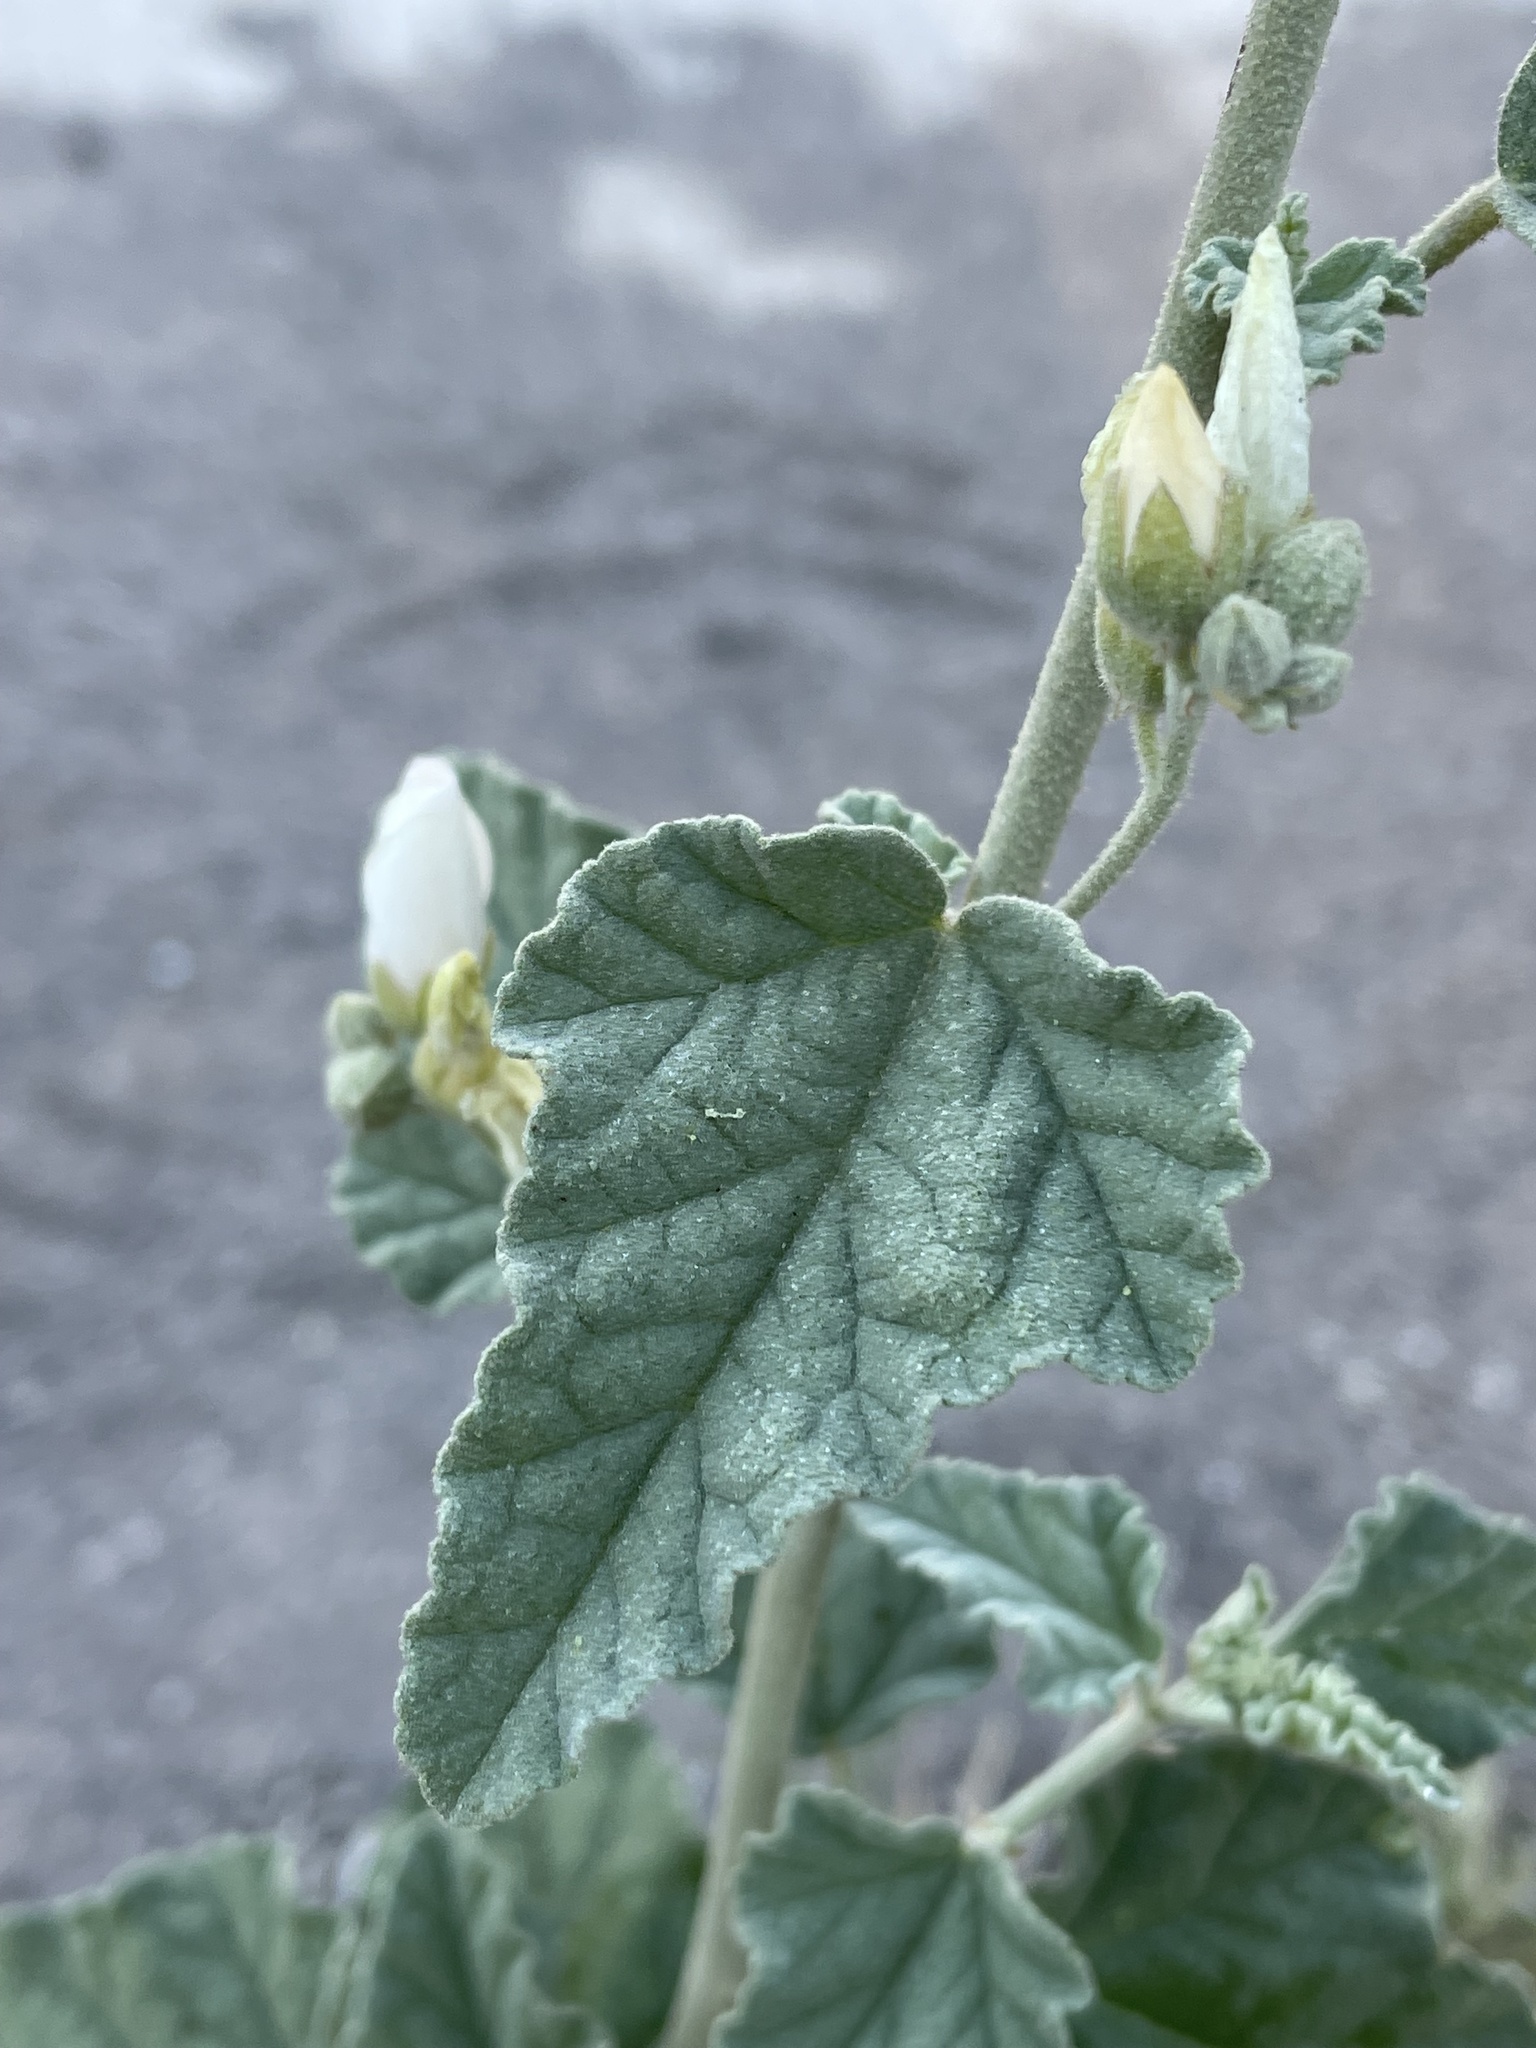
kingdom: Plantae
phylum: Tracheophyta
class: Magnoliopsida
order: Malvales
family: Malvaceae
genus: Sphaeralcea
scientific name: Sphaeralcea axillaris
